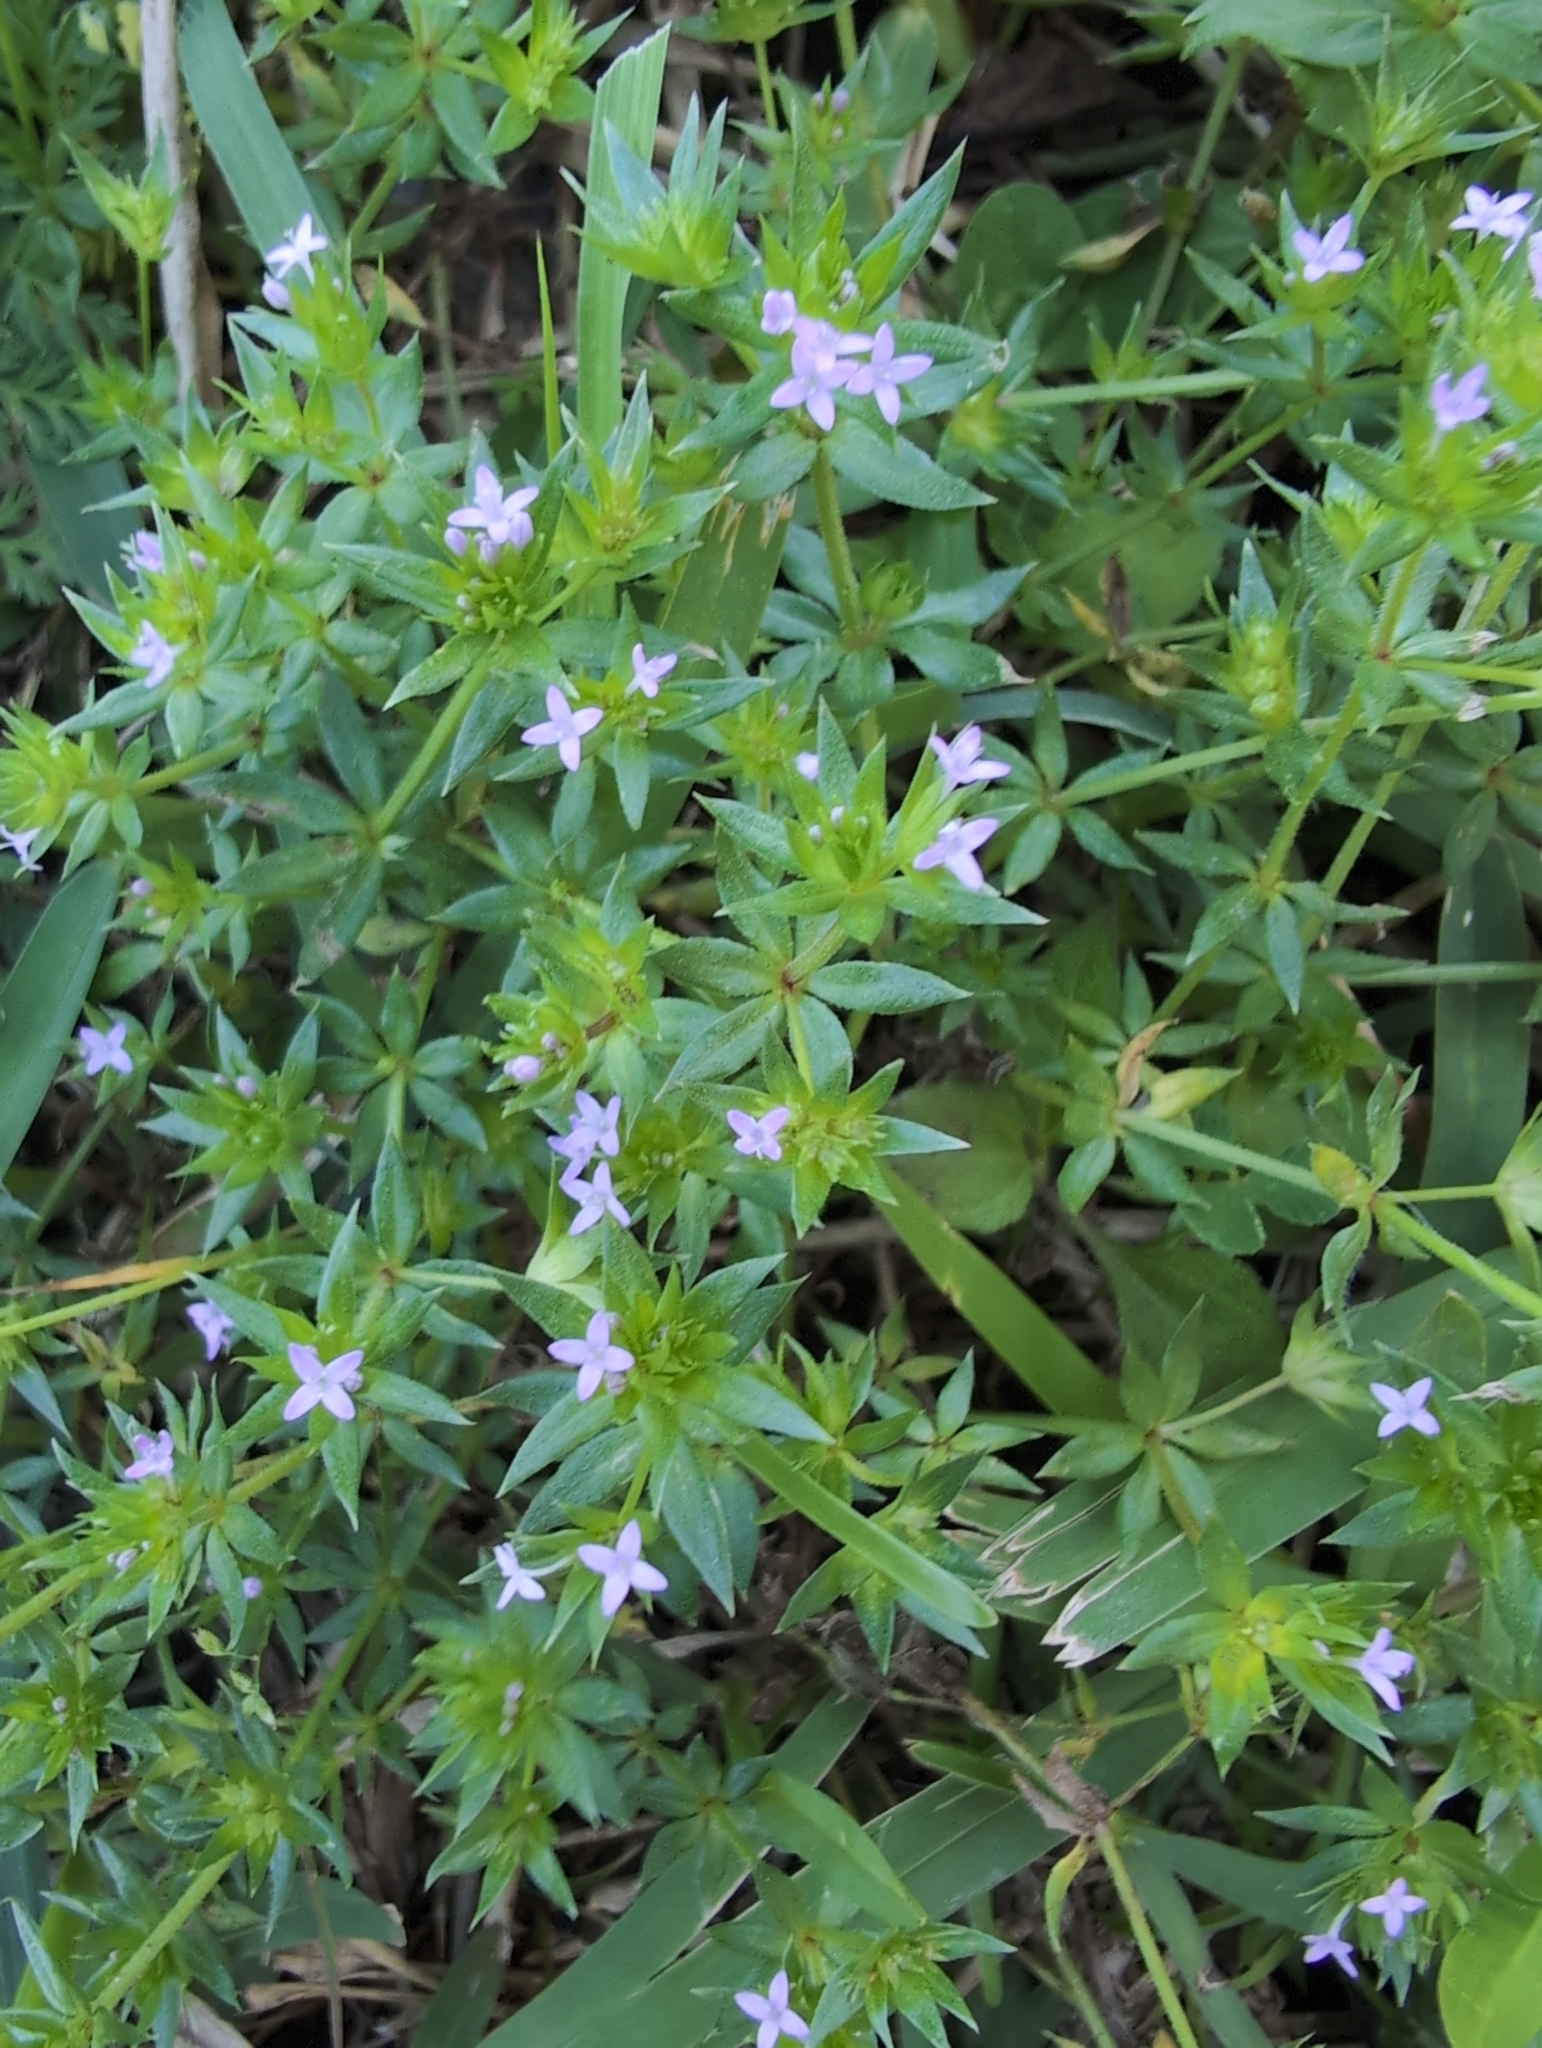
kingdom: Plantae
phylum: Tracheophyta
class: Magnoliopsida
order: Gentianales
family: Rubiaceae
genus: Sherardia
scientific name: Sherardia arvensis
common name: Field madder
